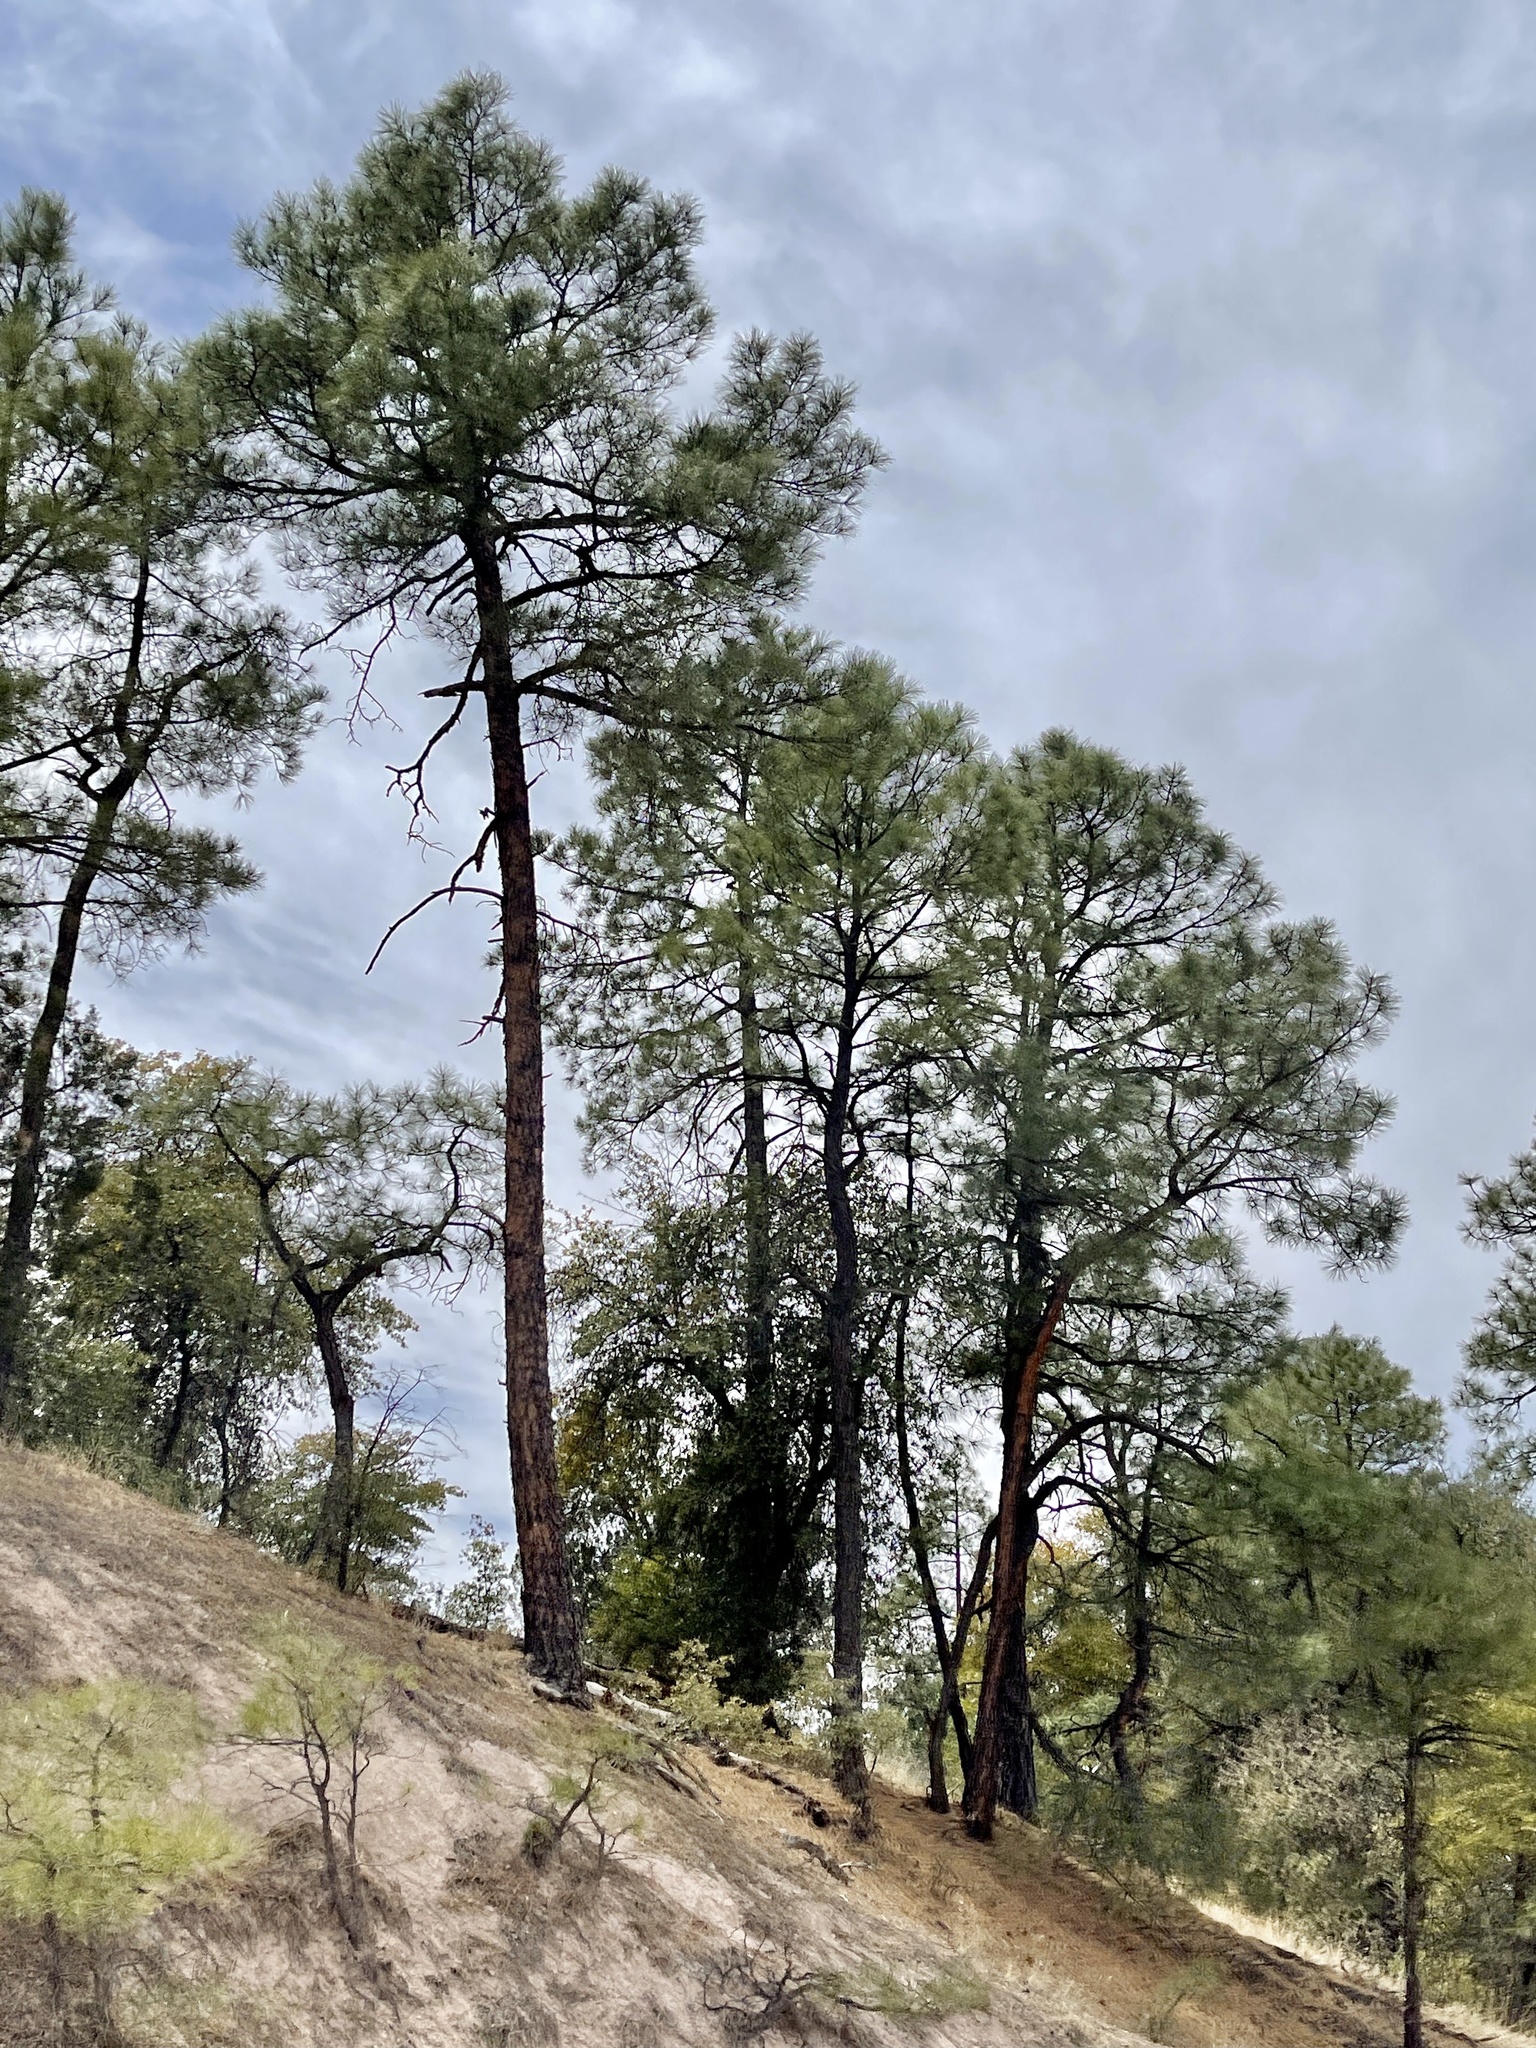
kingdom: Plantae
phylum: Tracheophyta
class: Pinopsida
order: Pinales
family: Pinaceae
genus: Pinus
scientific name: Pinus ponderosa
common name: Western yellow-pine
